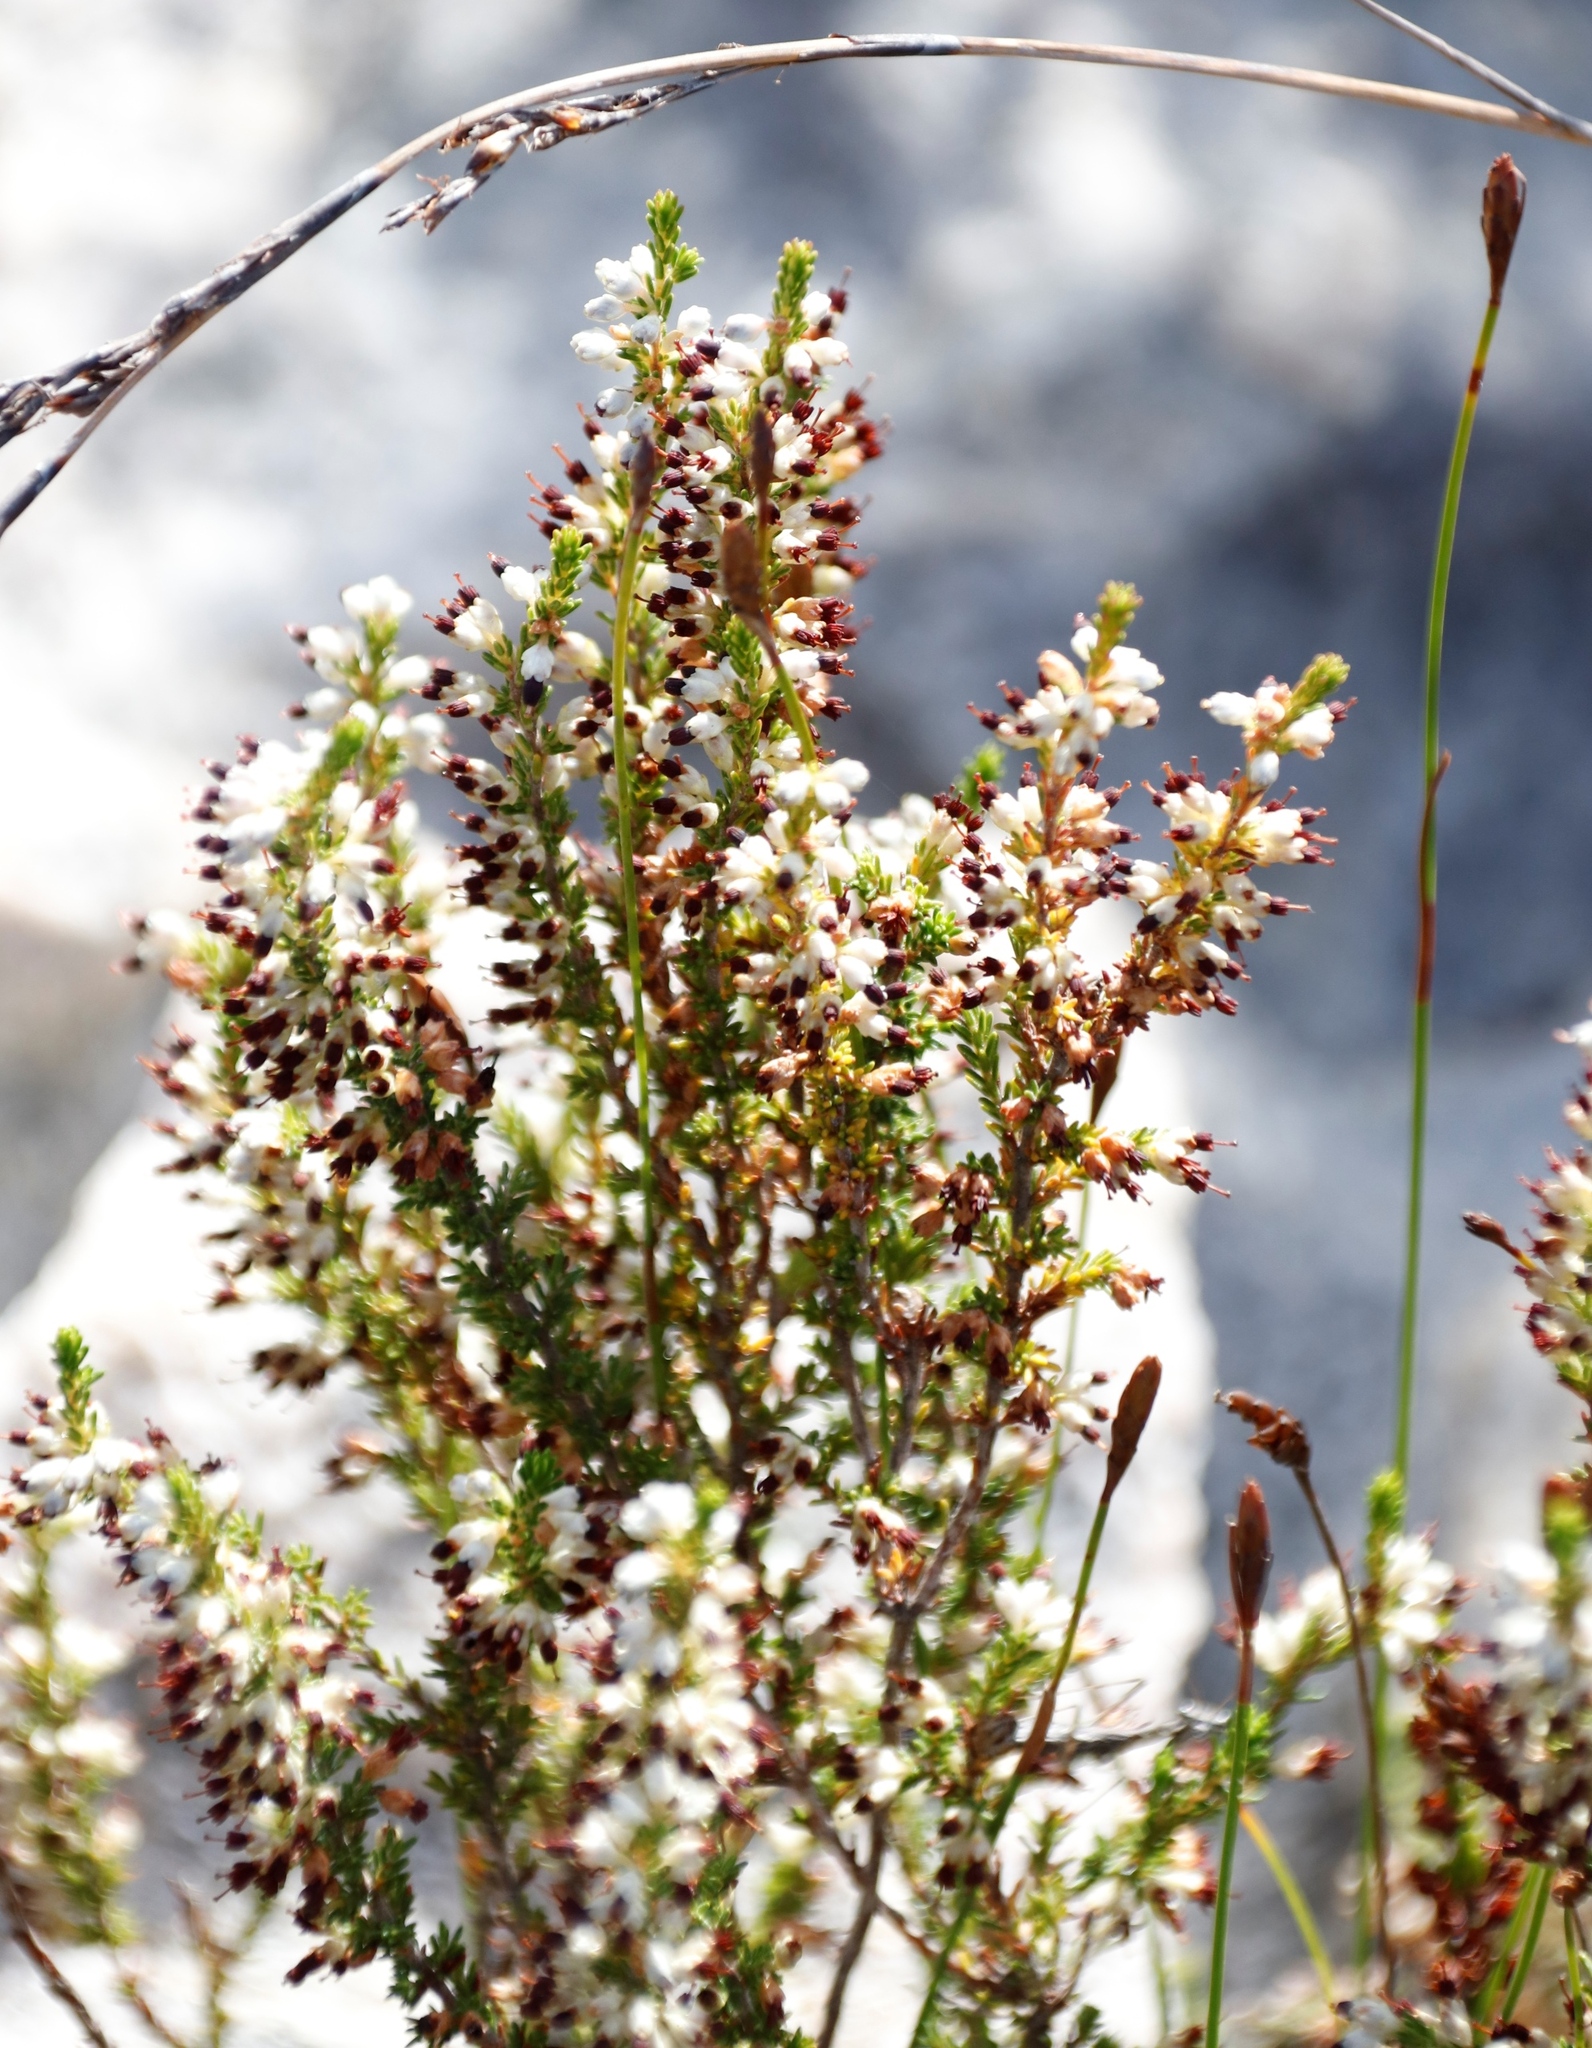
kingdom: Plantae
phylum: Tracheophyta
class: Magnoliopsida
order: Ericales
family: Ericaceae
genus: Erica
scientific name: Erica lasciva
